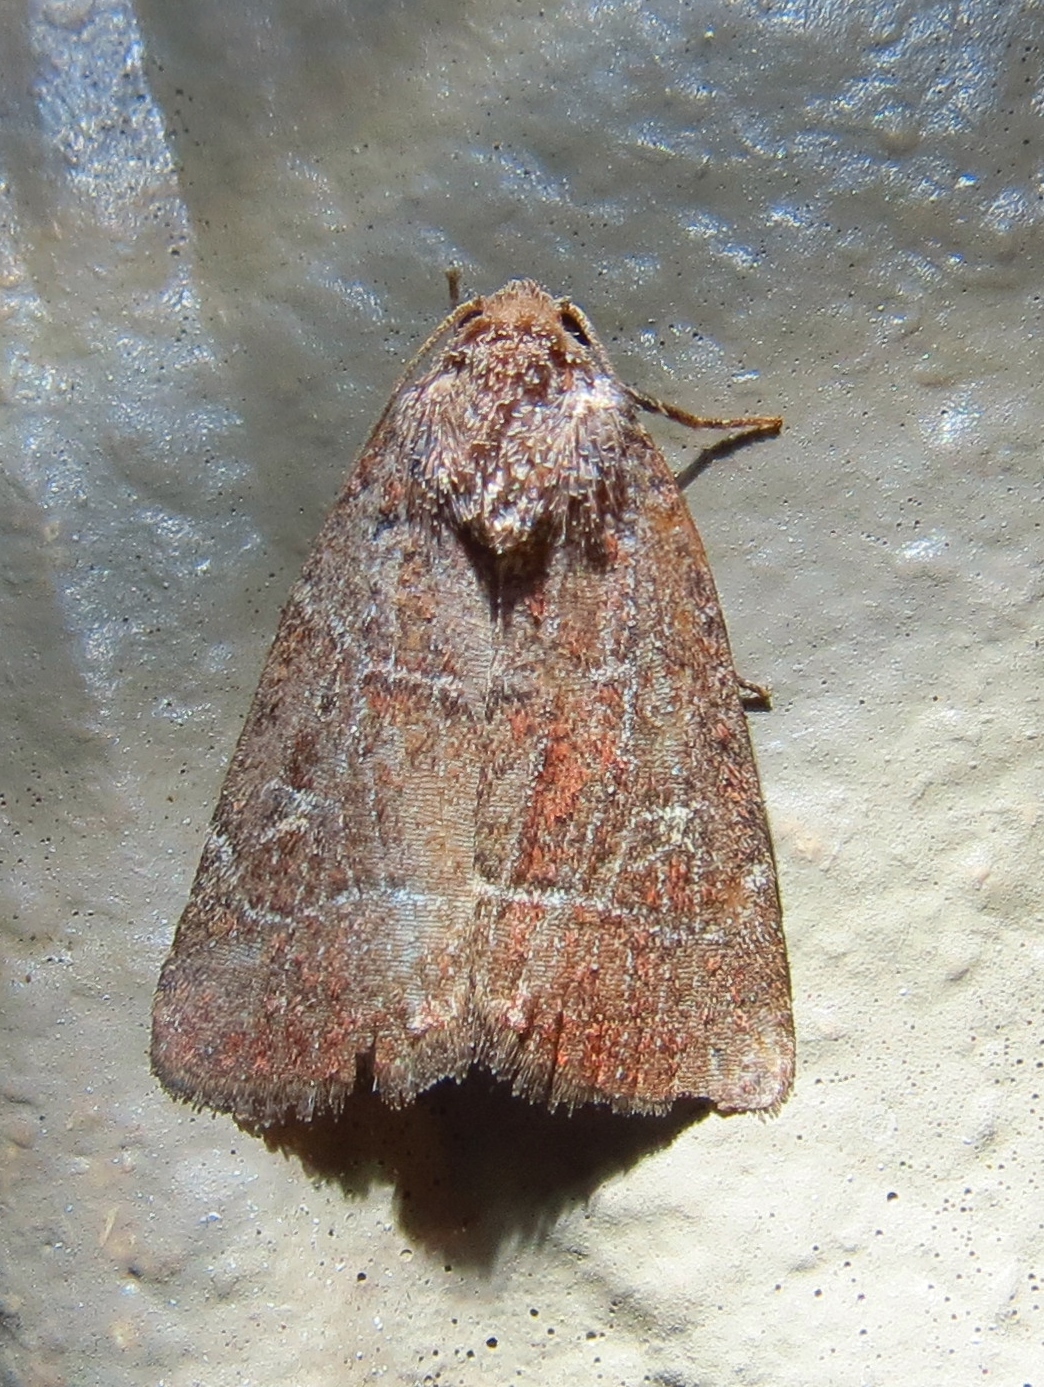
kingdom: Animalia
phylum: Arthropoda
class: Insecta
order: Lepidoptera
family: Noctuidae
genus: Elaphria
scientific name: Elaphria grata
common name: Grateful midget moth
